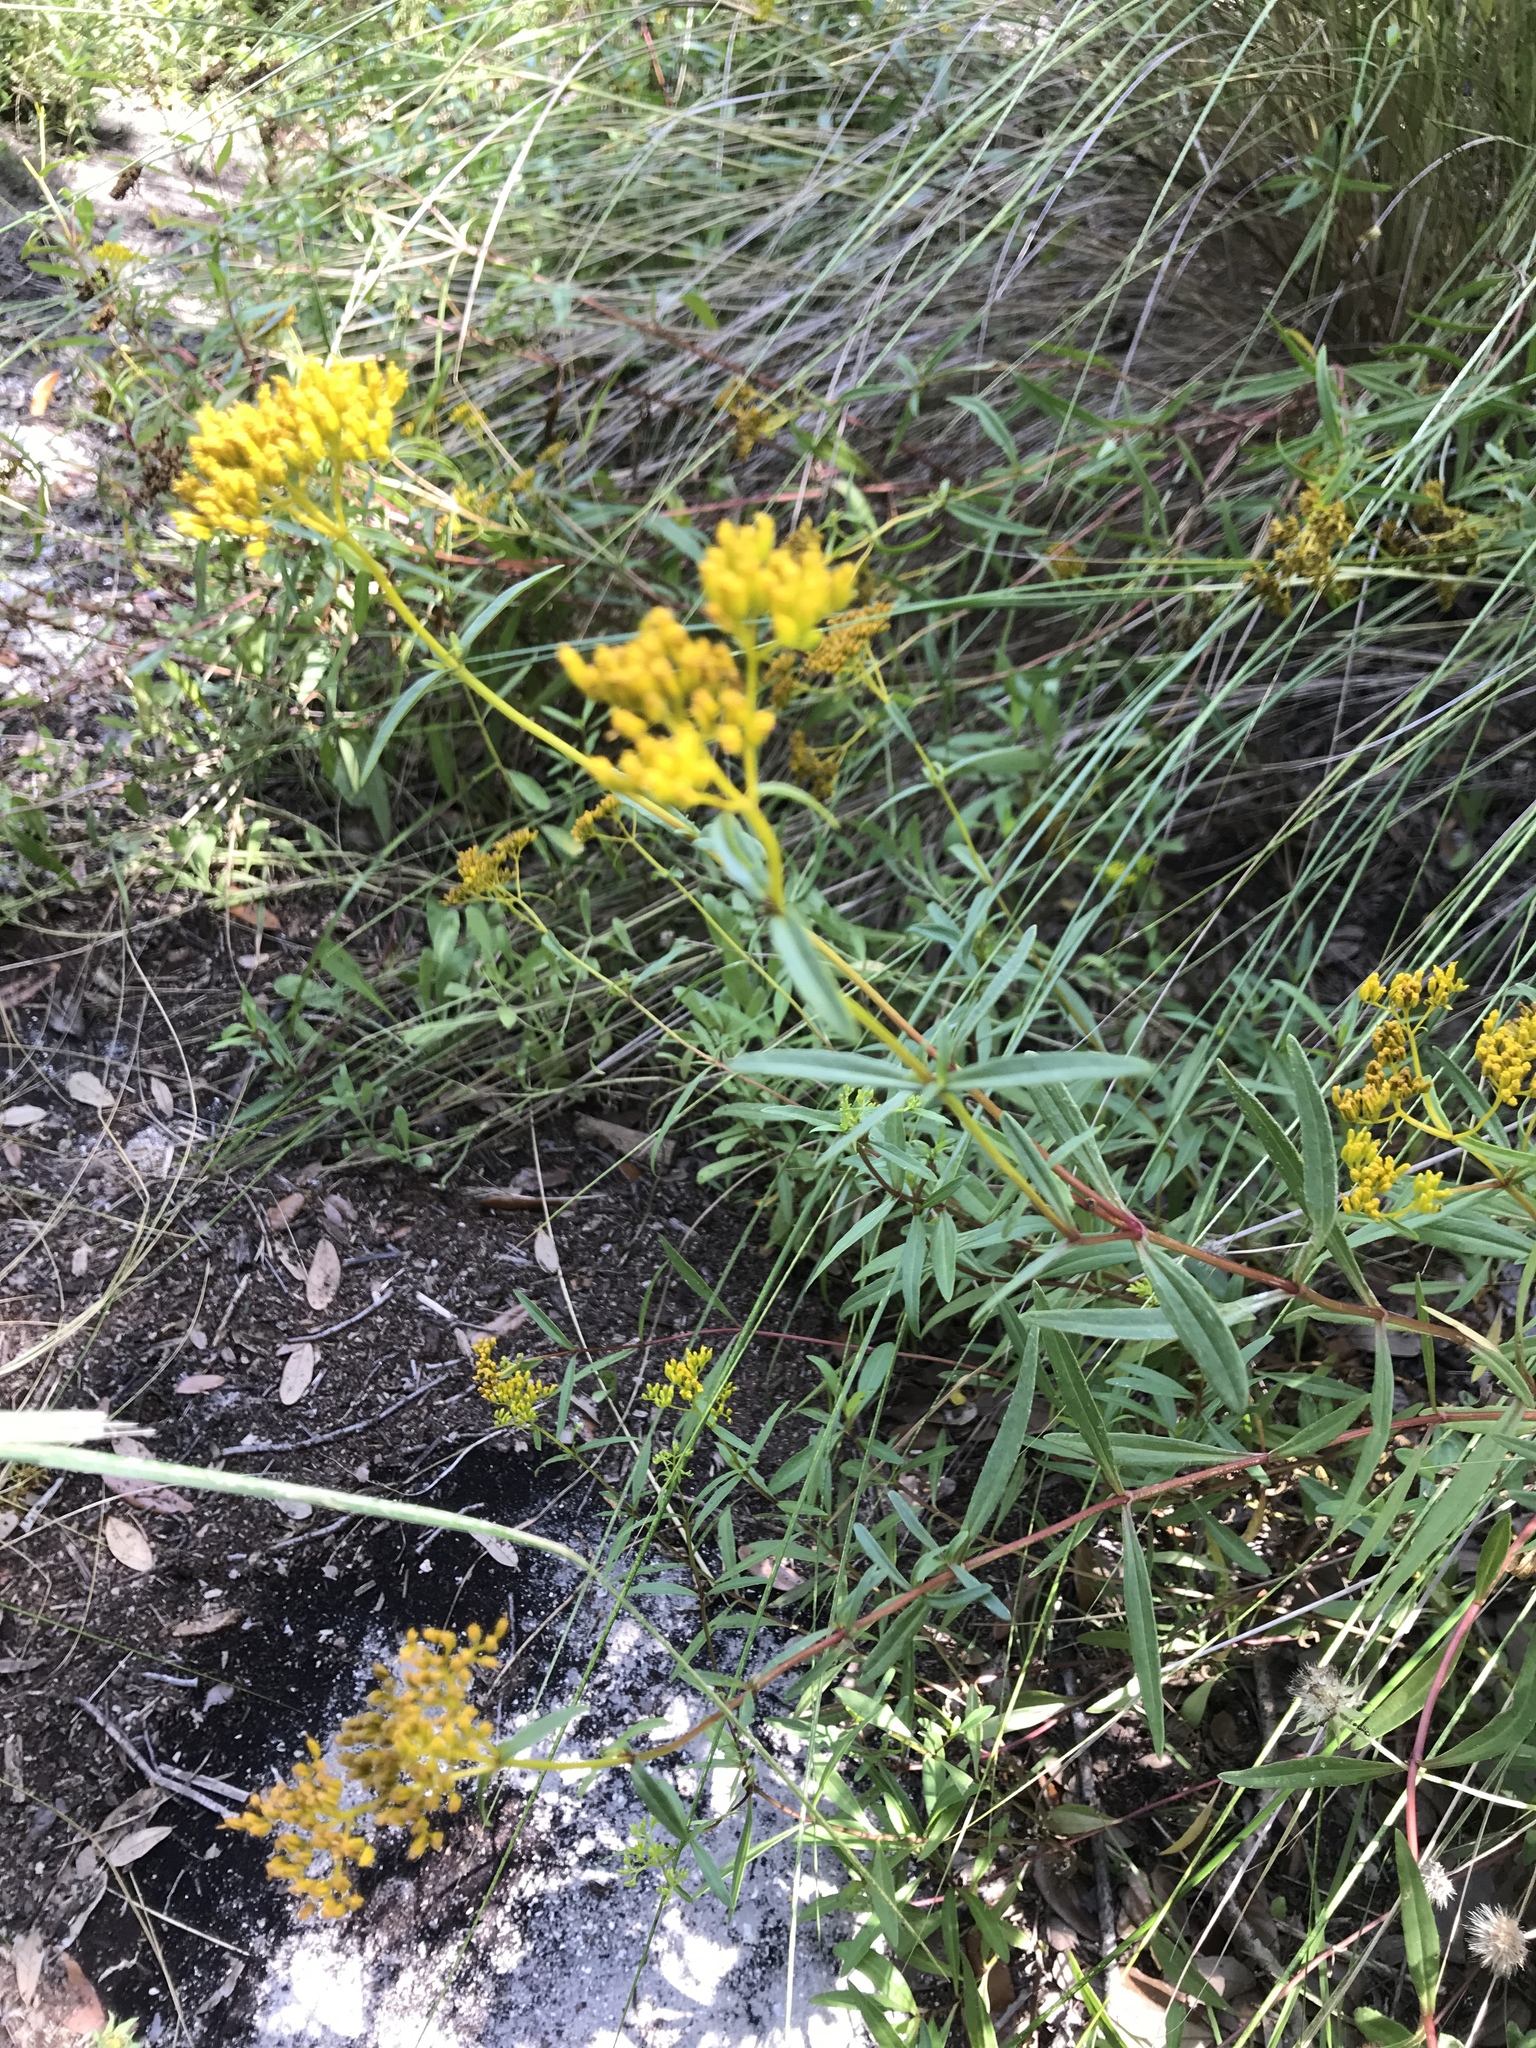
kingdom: Plantae
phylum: Tracheophyta
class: Magnoliopsida
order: Asterales
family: Asteraceae
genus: Flaveria
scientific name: Flaveria linearis
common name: Yellowtop
